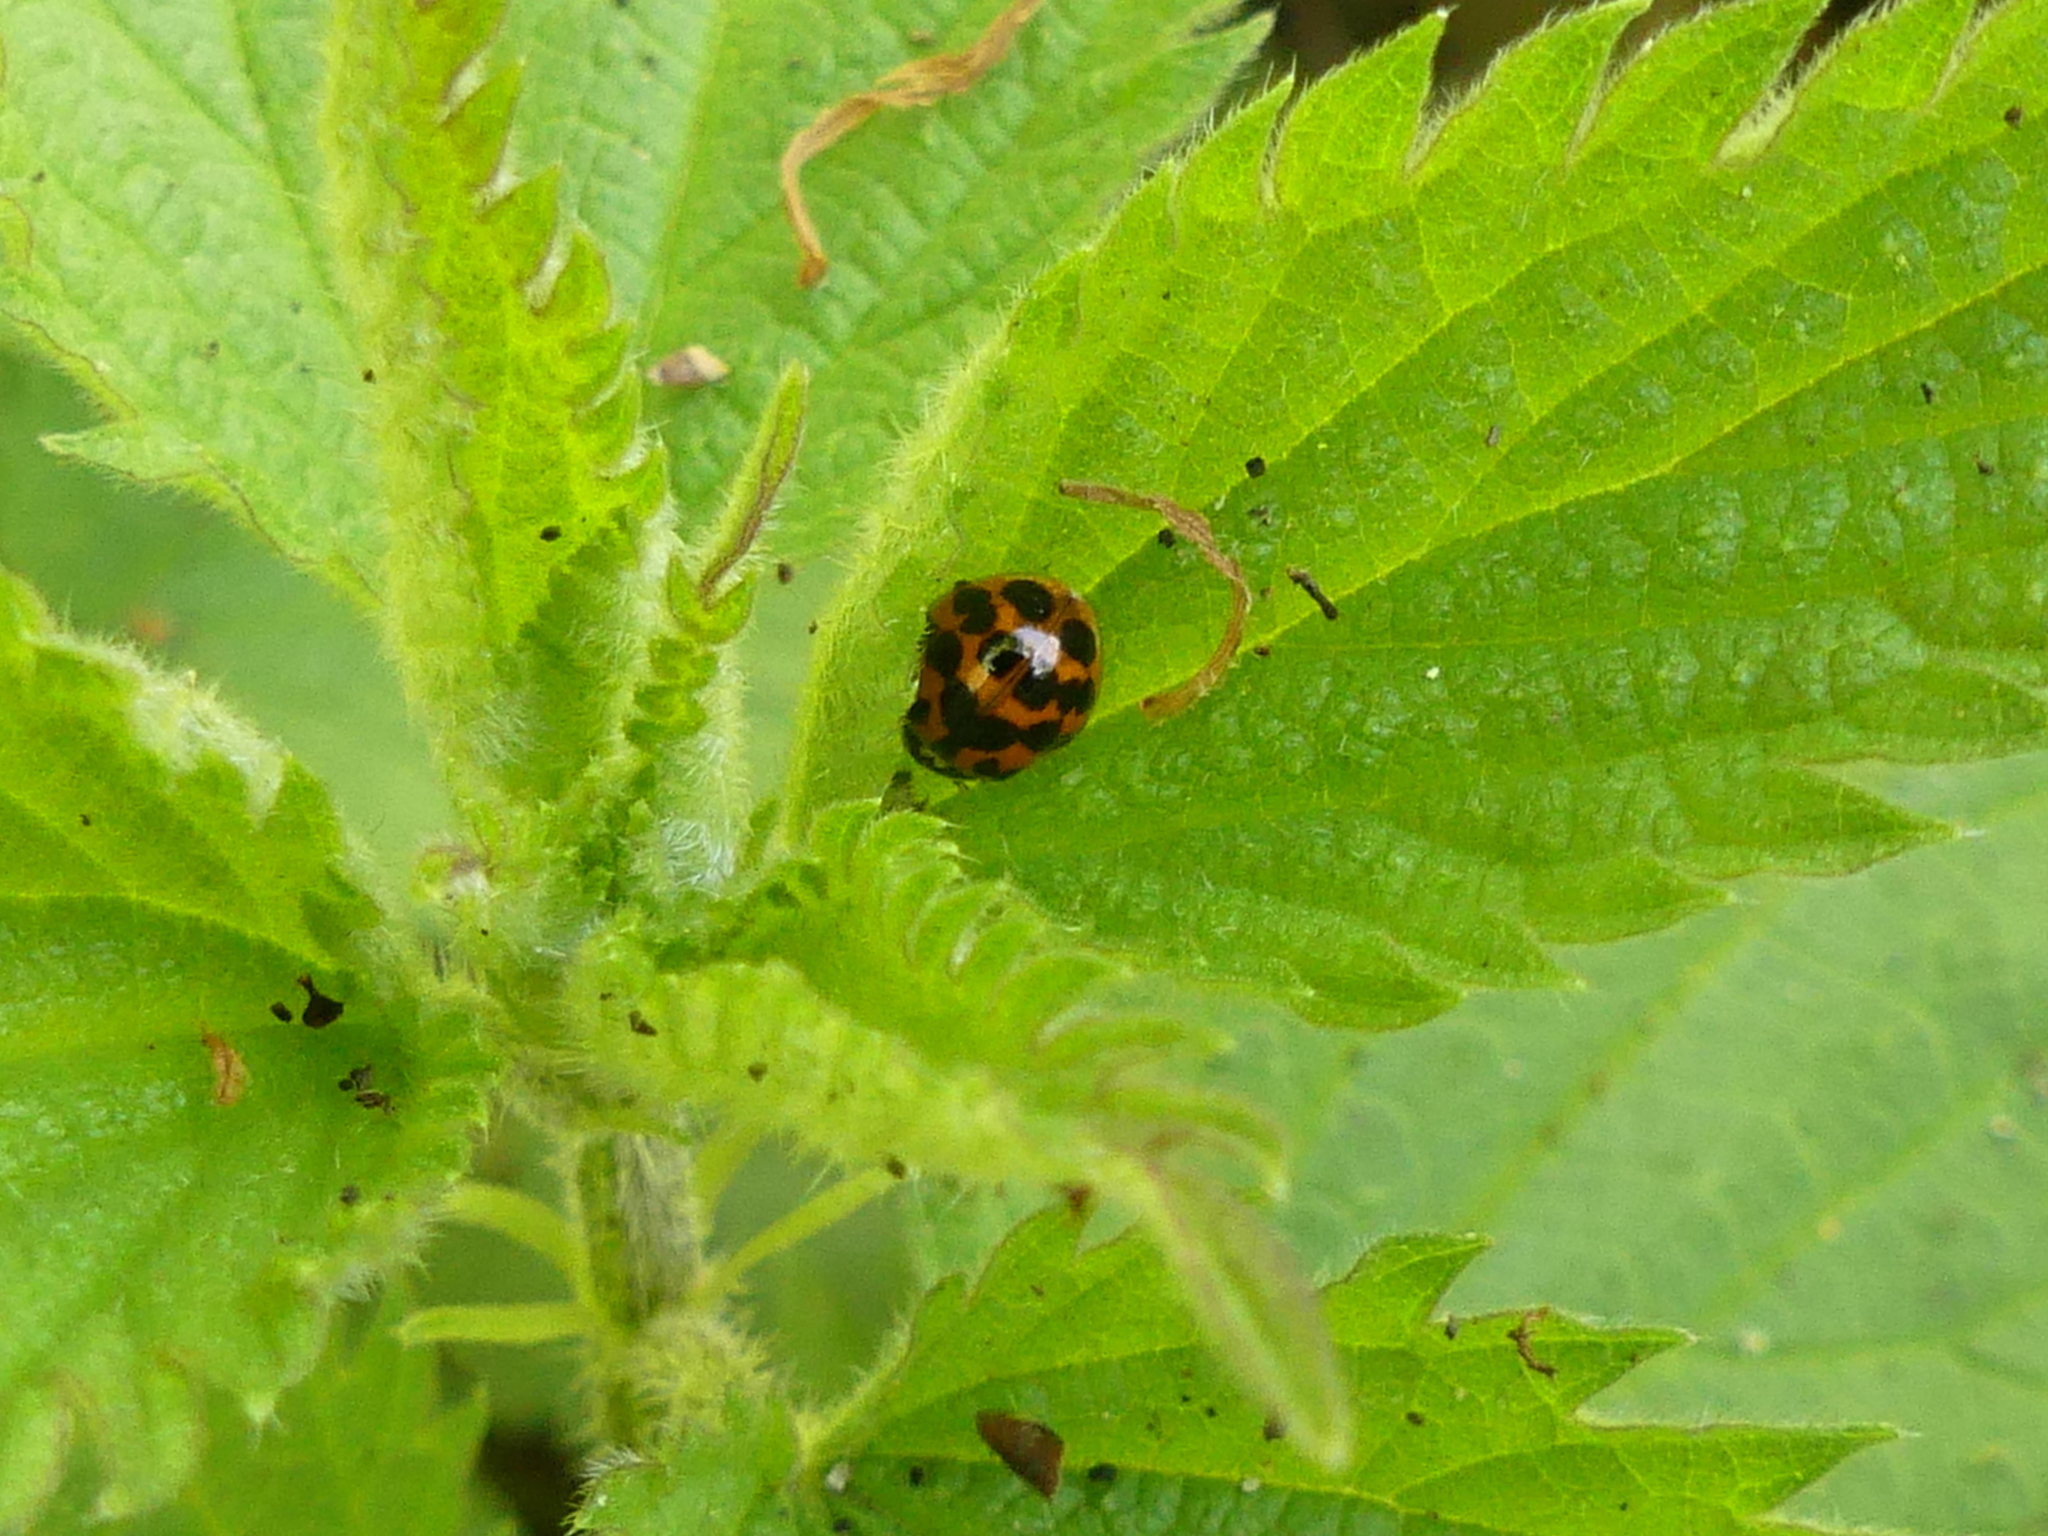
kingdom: Animalia
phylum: Arthropoda
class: Insecta
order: Coleoptera
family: Coccinellidae
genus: Harmonia
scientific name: Harmonia axyridis
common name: Harlequin ladybird
